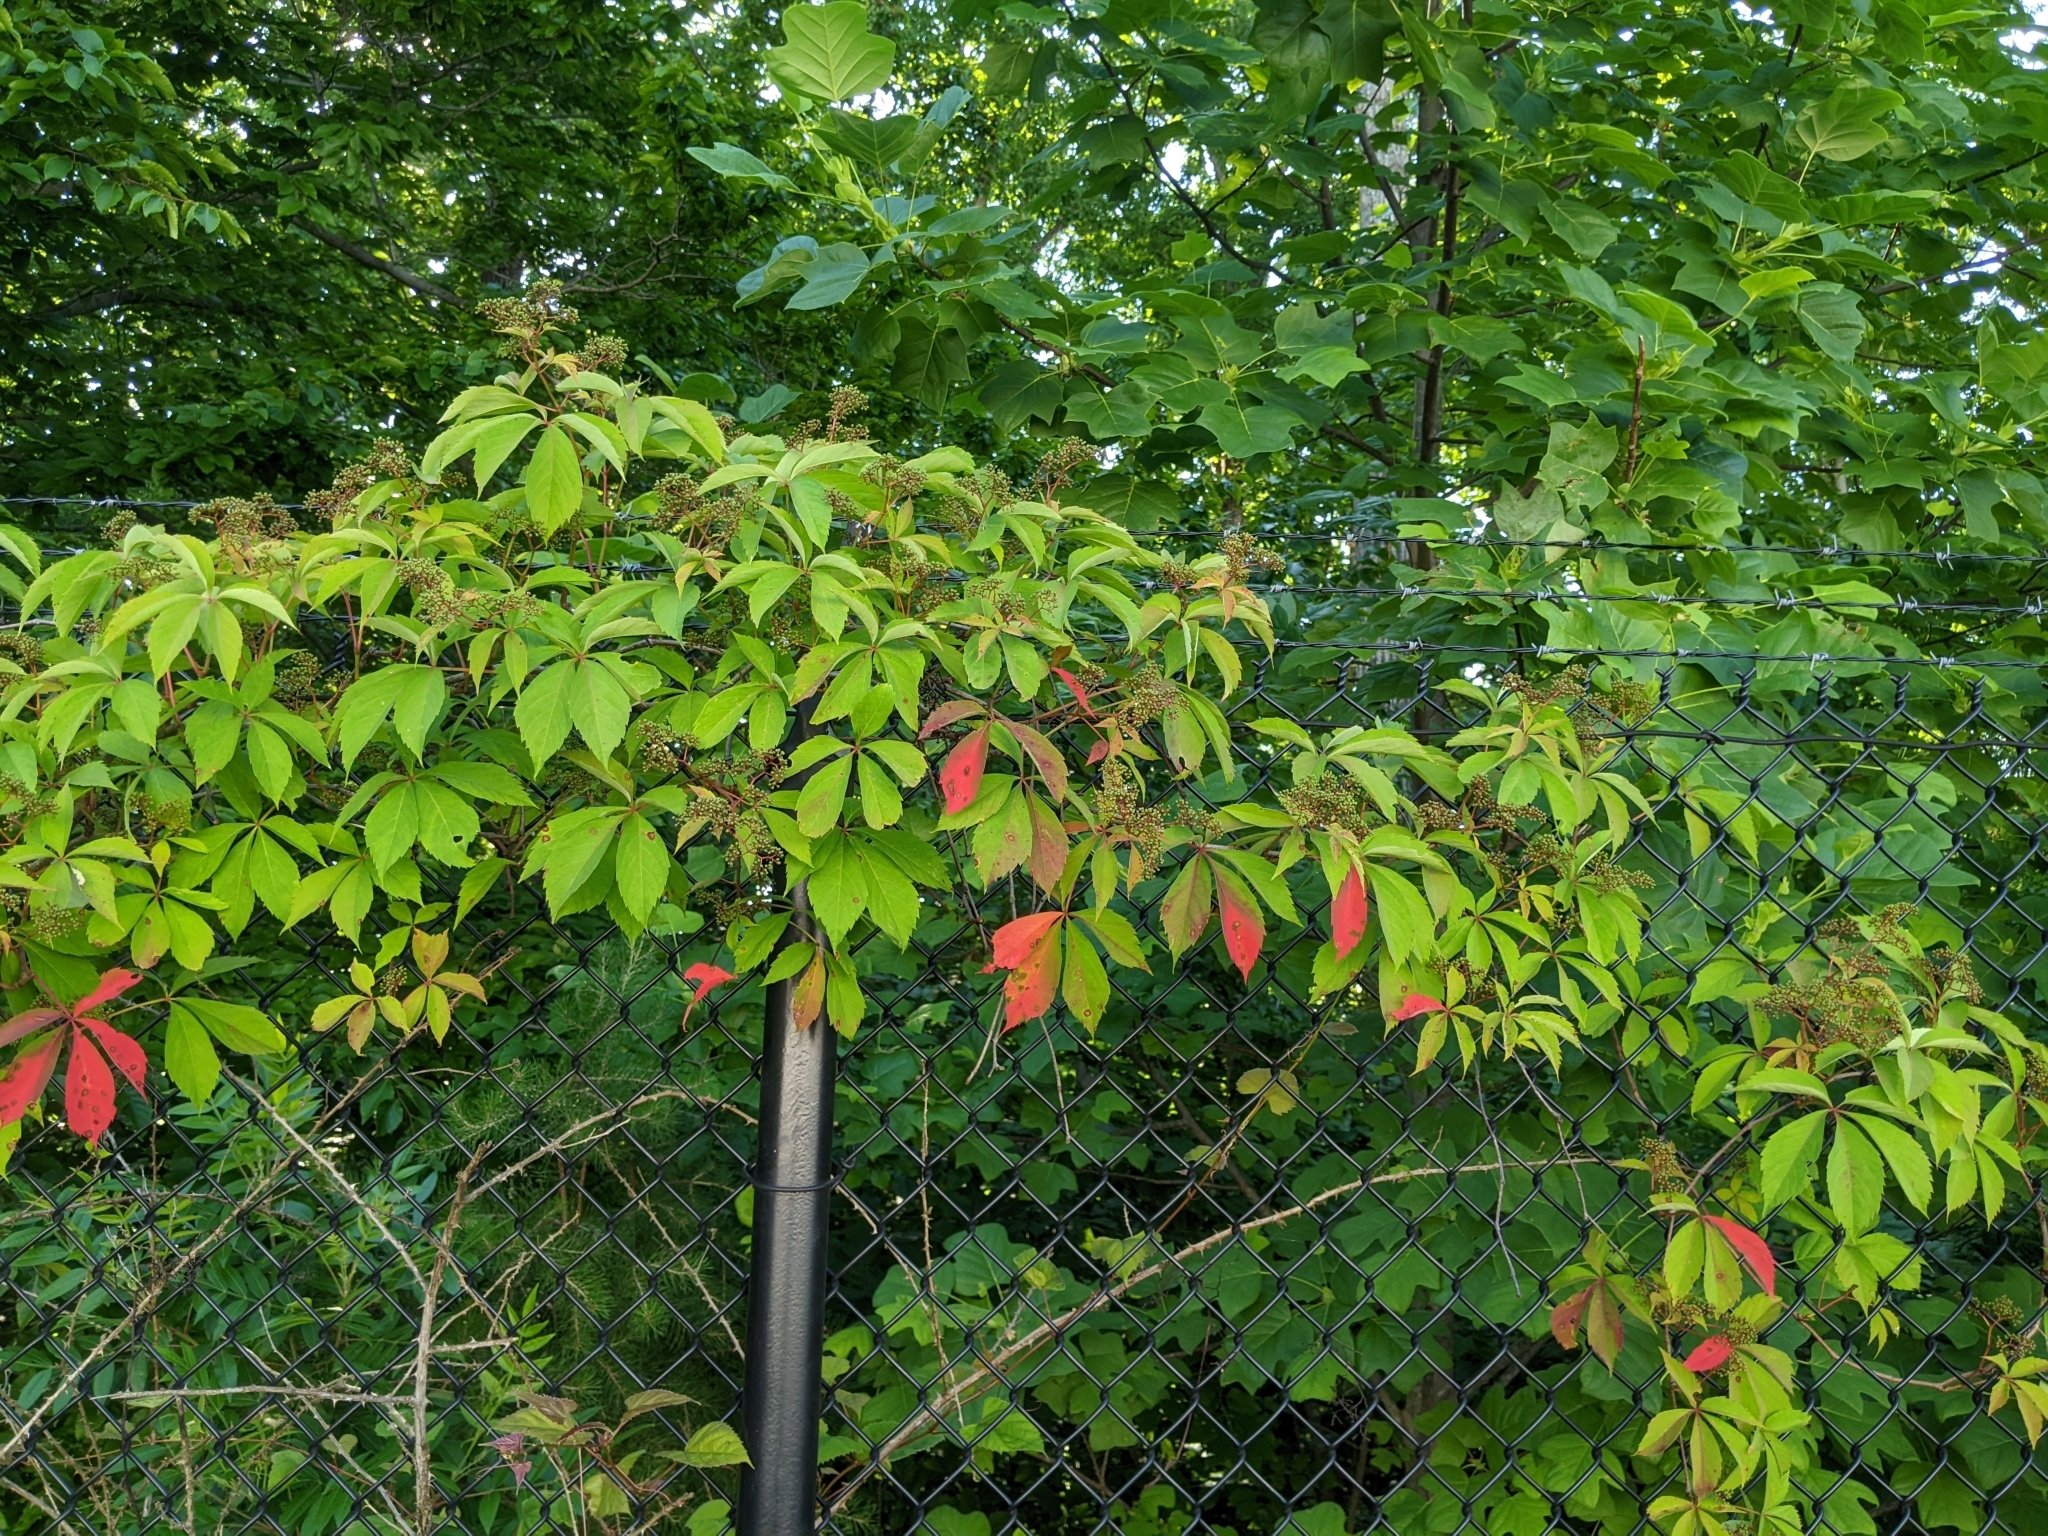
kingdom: Plantae
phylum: Tracheophyta
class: Magnoliopsida
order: Vitales
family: Vitaceae
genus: Parthenocissus
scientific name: Parthenocissus quinquefolia
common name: Virginia-creeper
